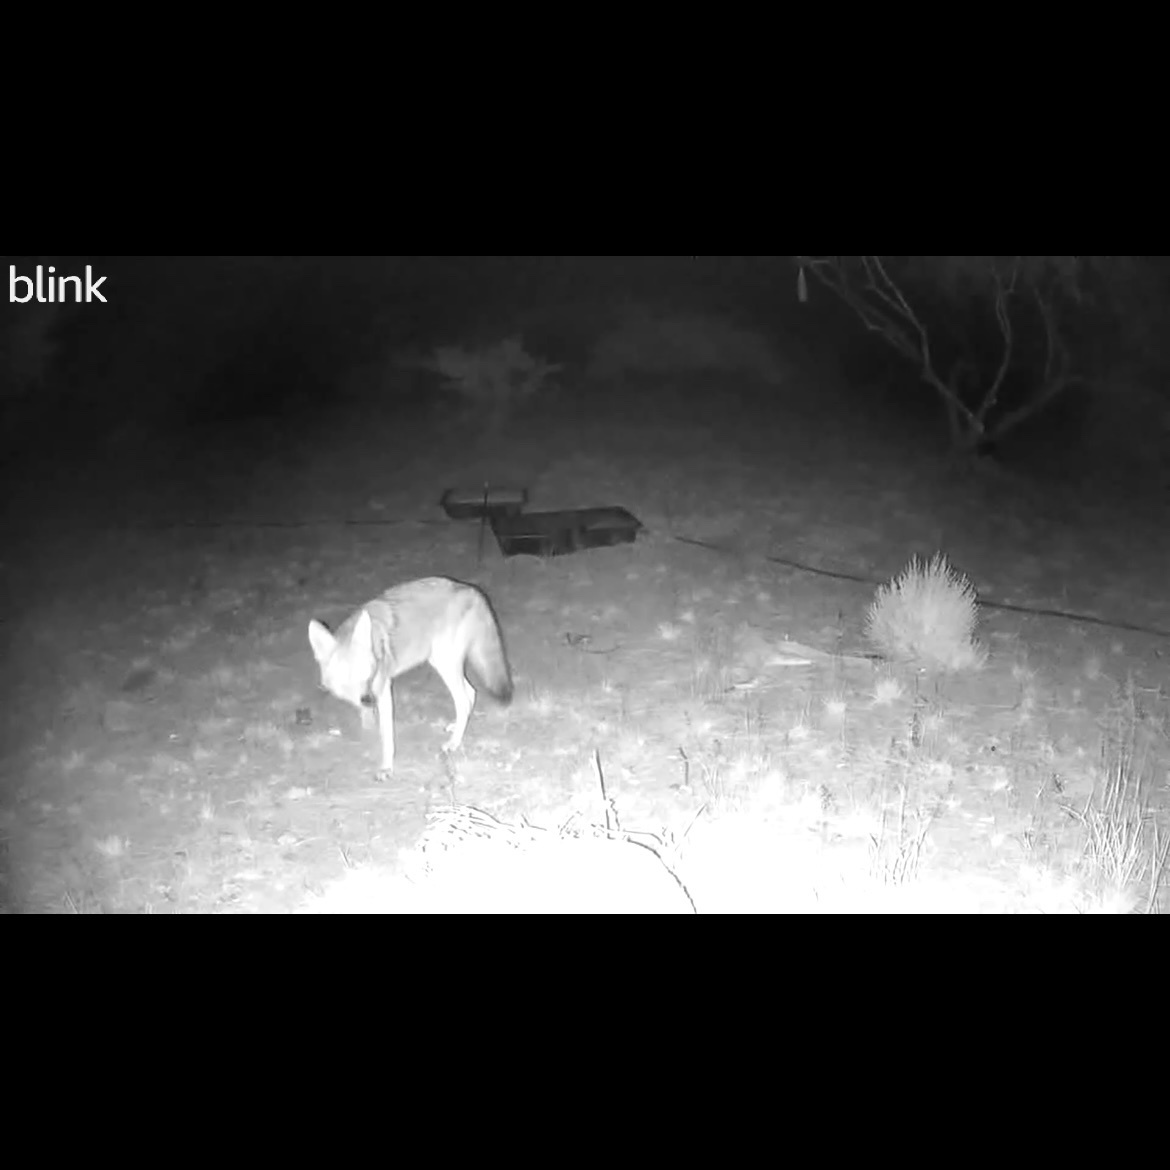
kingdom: Animalia
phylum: Chordata
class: Mammalia
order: Carnivora
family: Canidae
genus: Canis
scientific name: Canis latrans
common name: Coyote
